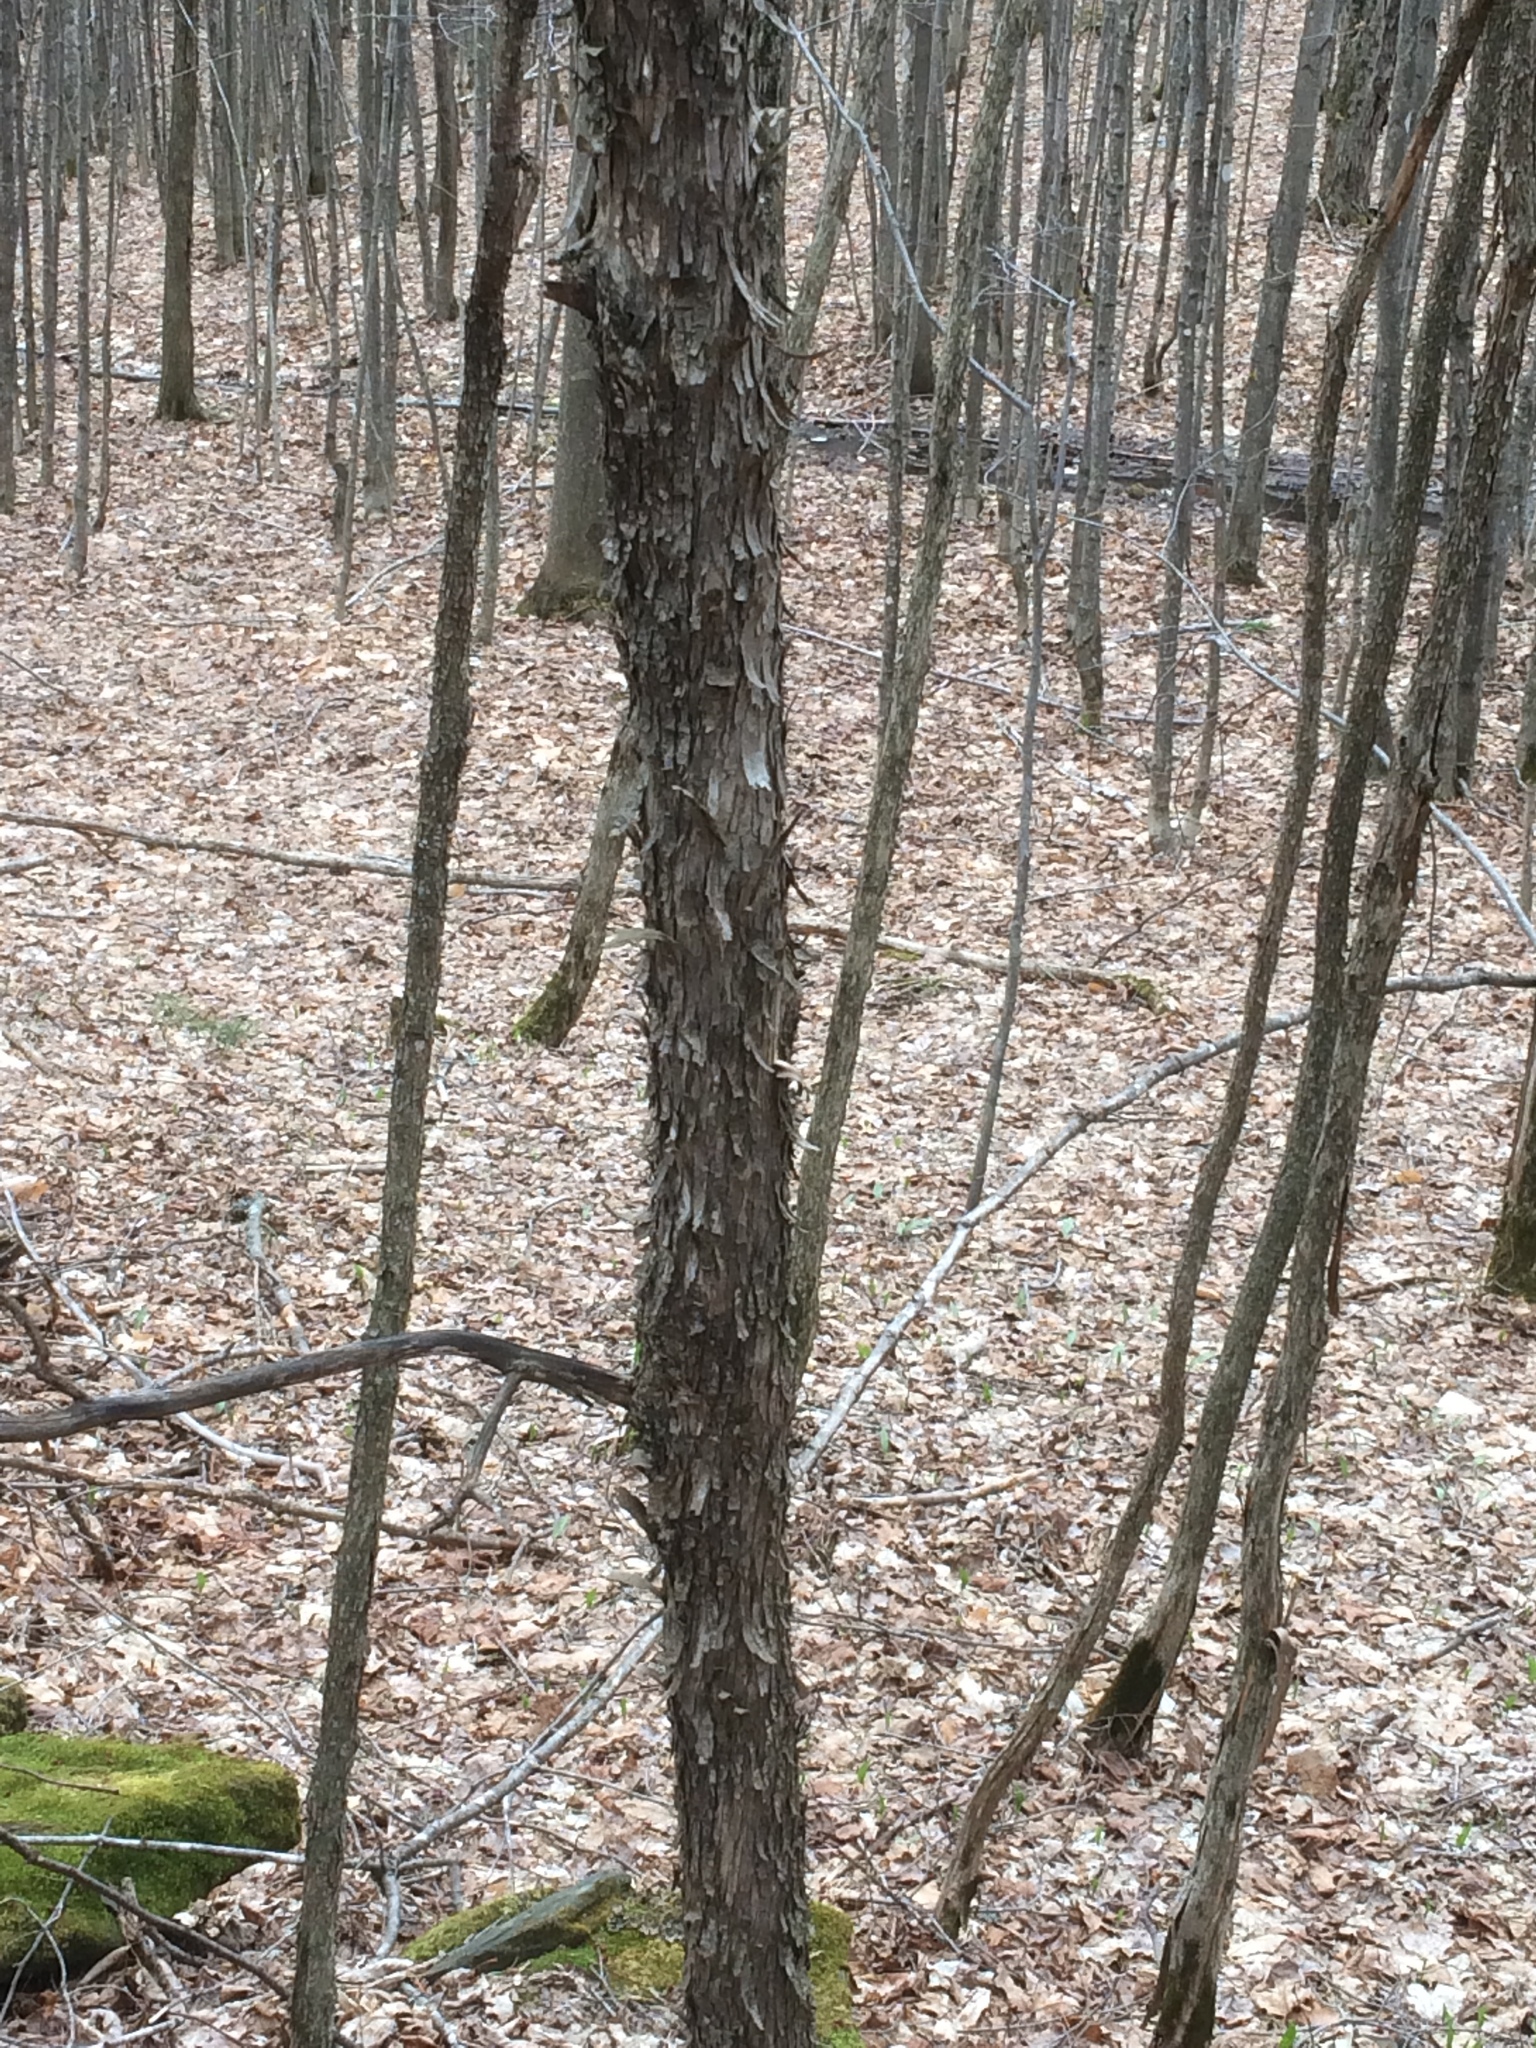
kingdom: Plantae
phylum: Tracheophyta
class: Magnoliopsida
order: Fagales
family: Betulaceae
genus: Ostrya
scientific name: Ostrya virginiana
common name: Ironwood
